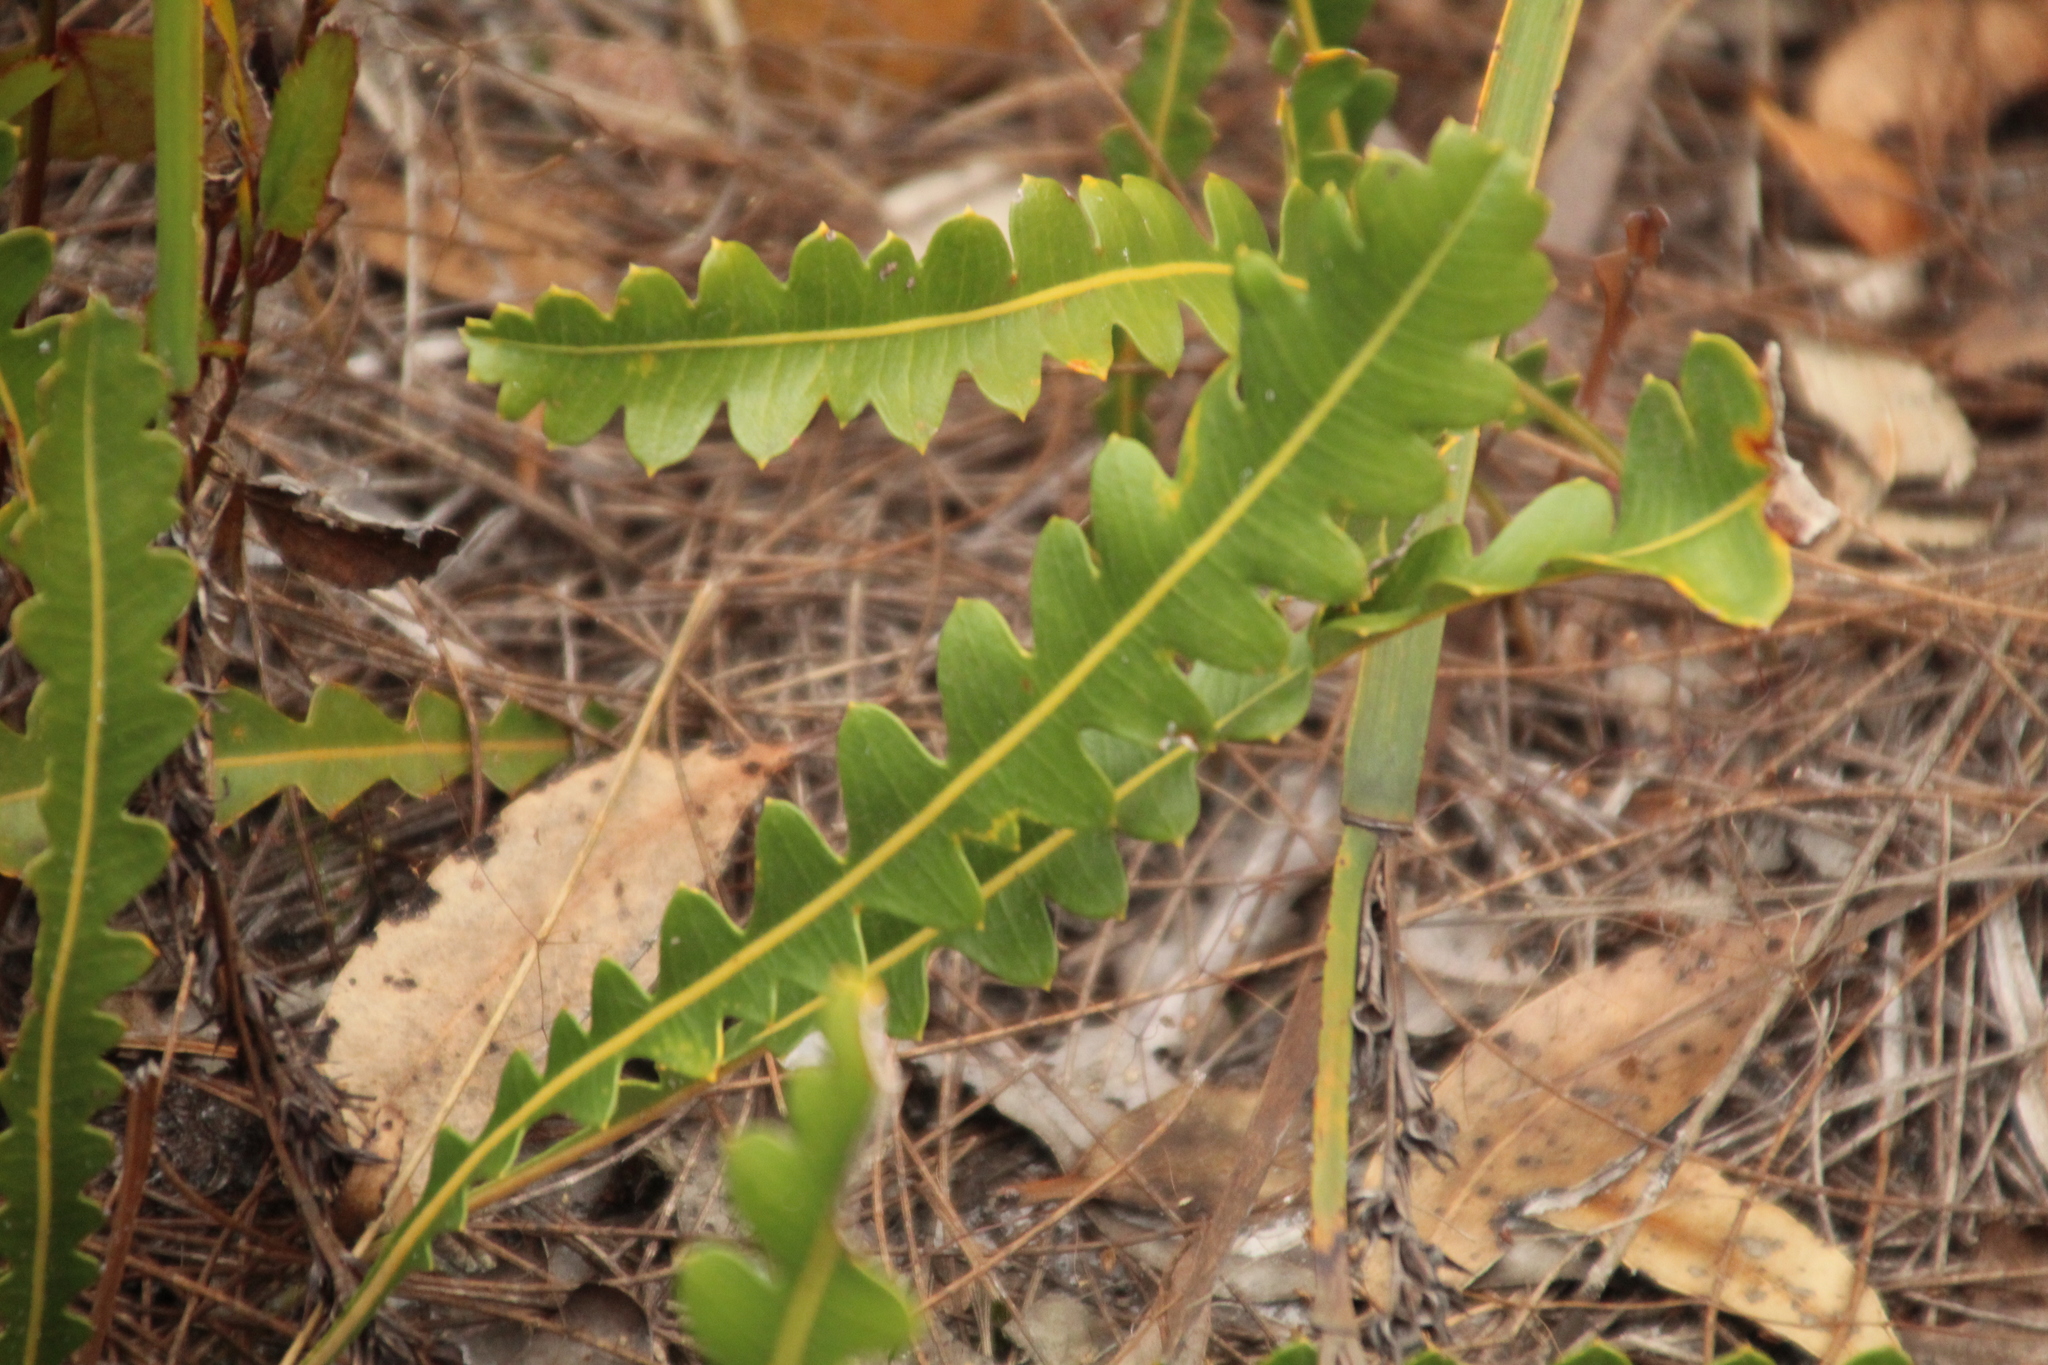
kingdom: Plantae
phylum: Tracheophyta
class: Magnoliopsida
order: Proteales
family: Proteaceae
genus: Banksia
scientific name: Banksia gardneri
